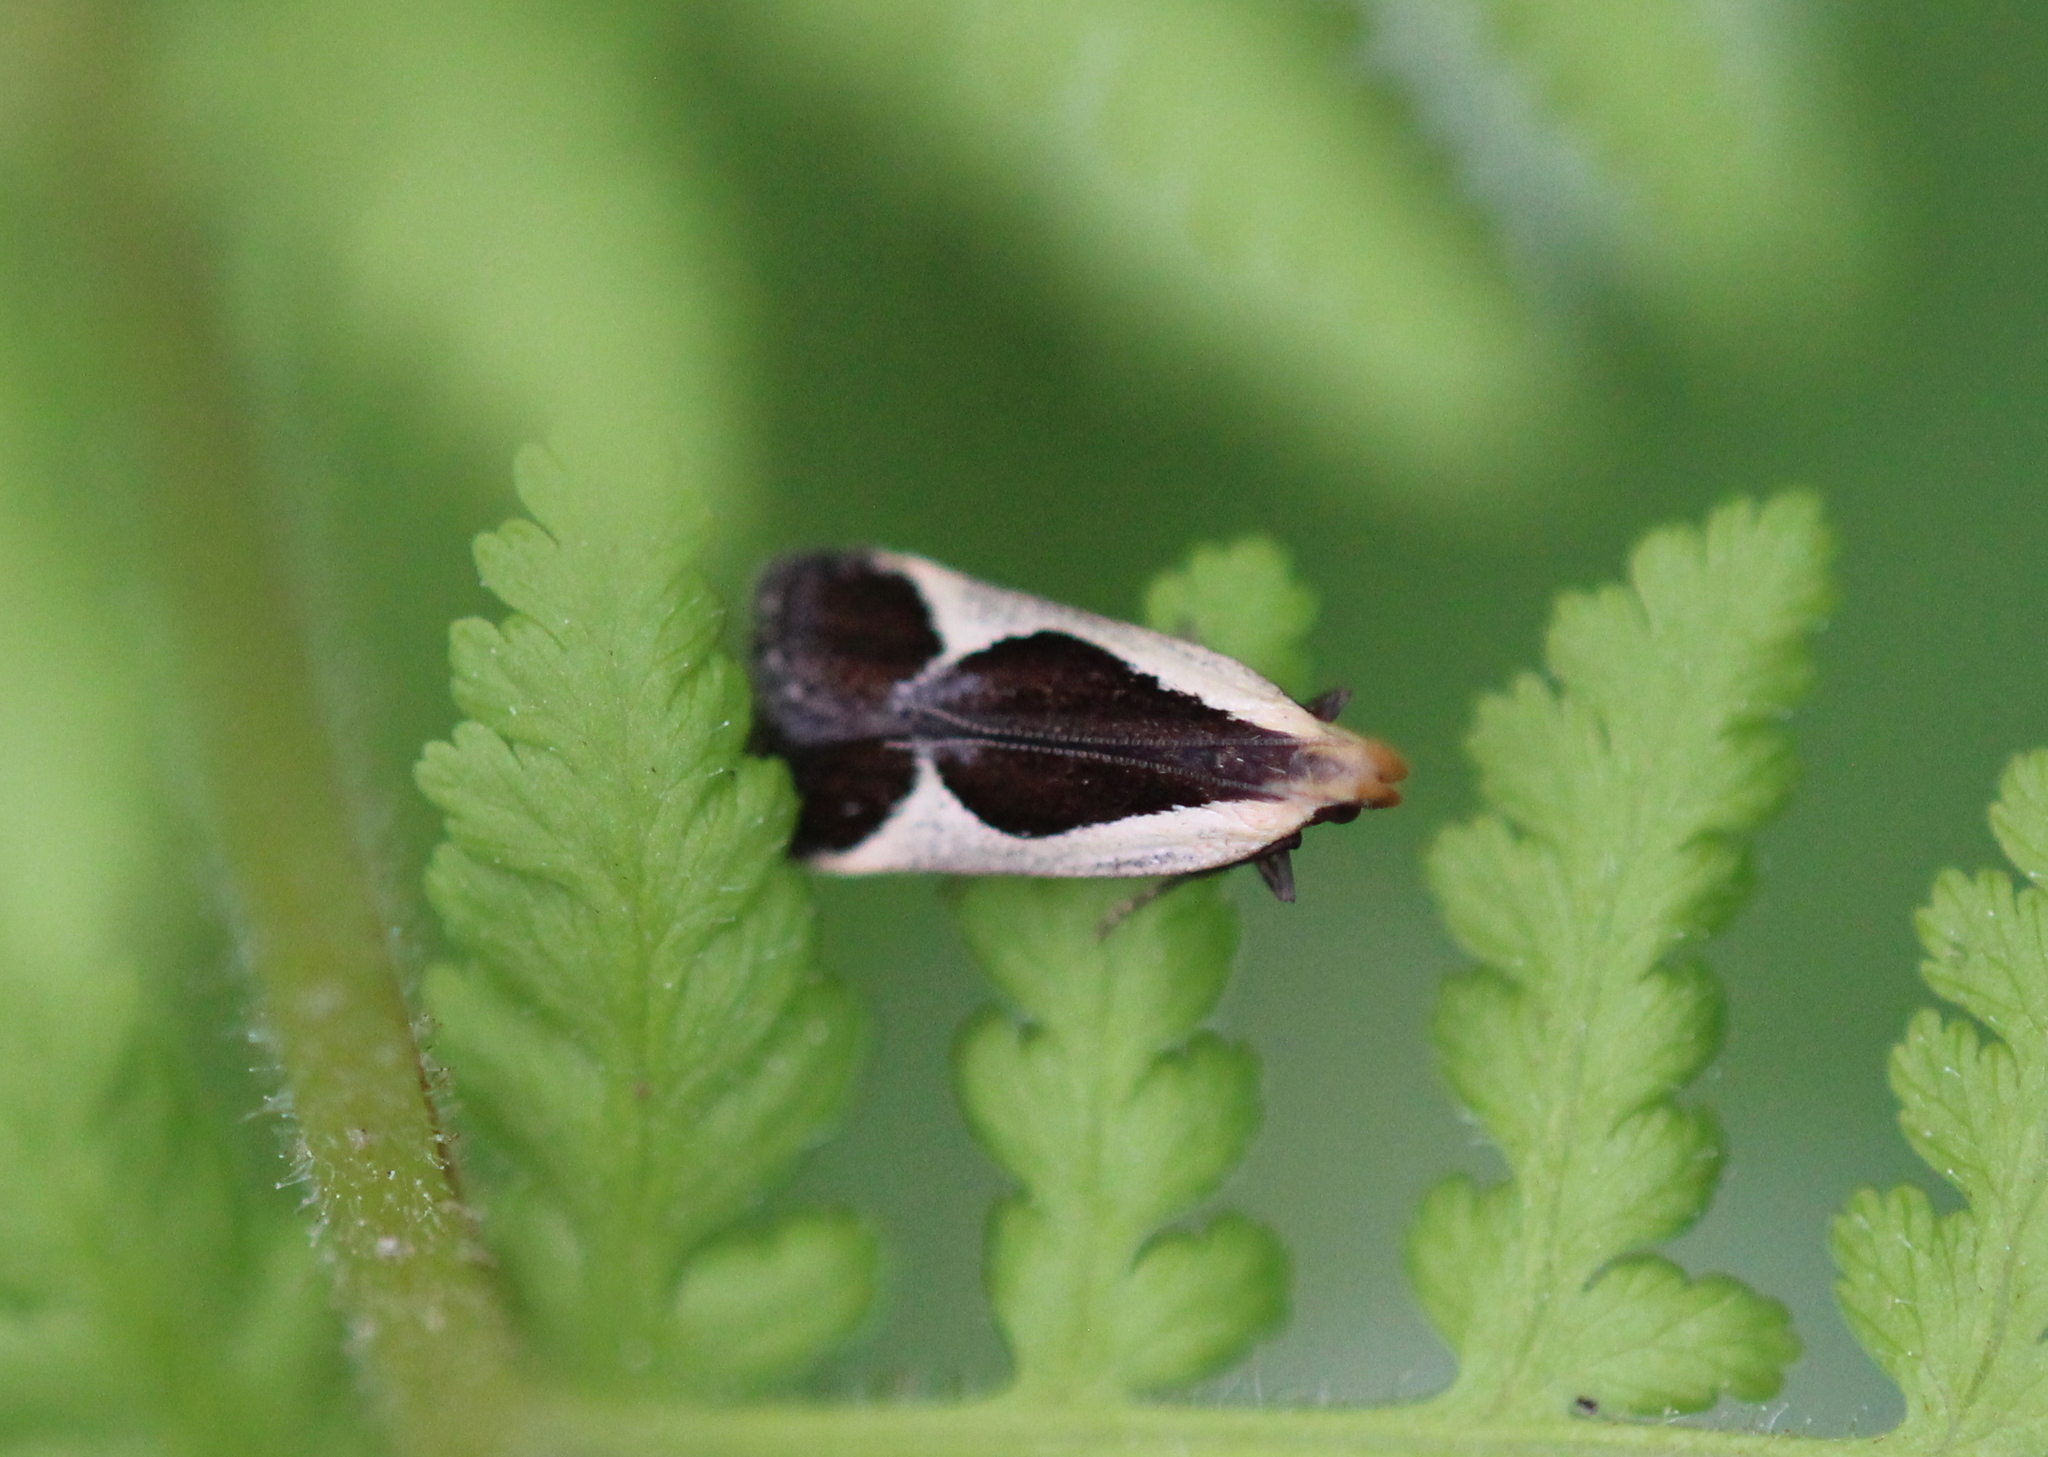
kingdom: Animalia
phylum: Arthropoda
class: Insecta
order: Lepidoptera
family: Gelechiidae
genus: Dichomeris
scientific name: Dichomeris flavocostella
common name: Cream-edged dichomeris moth
